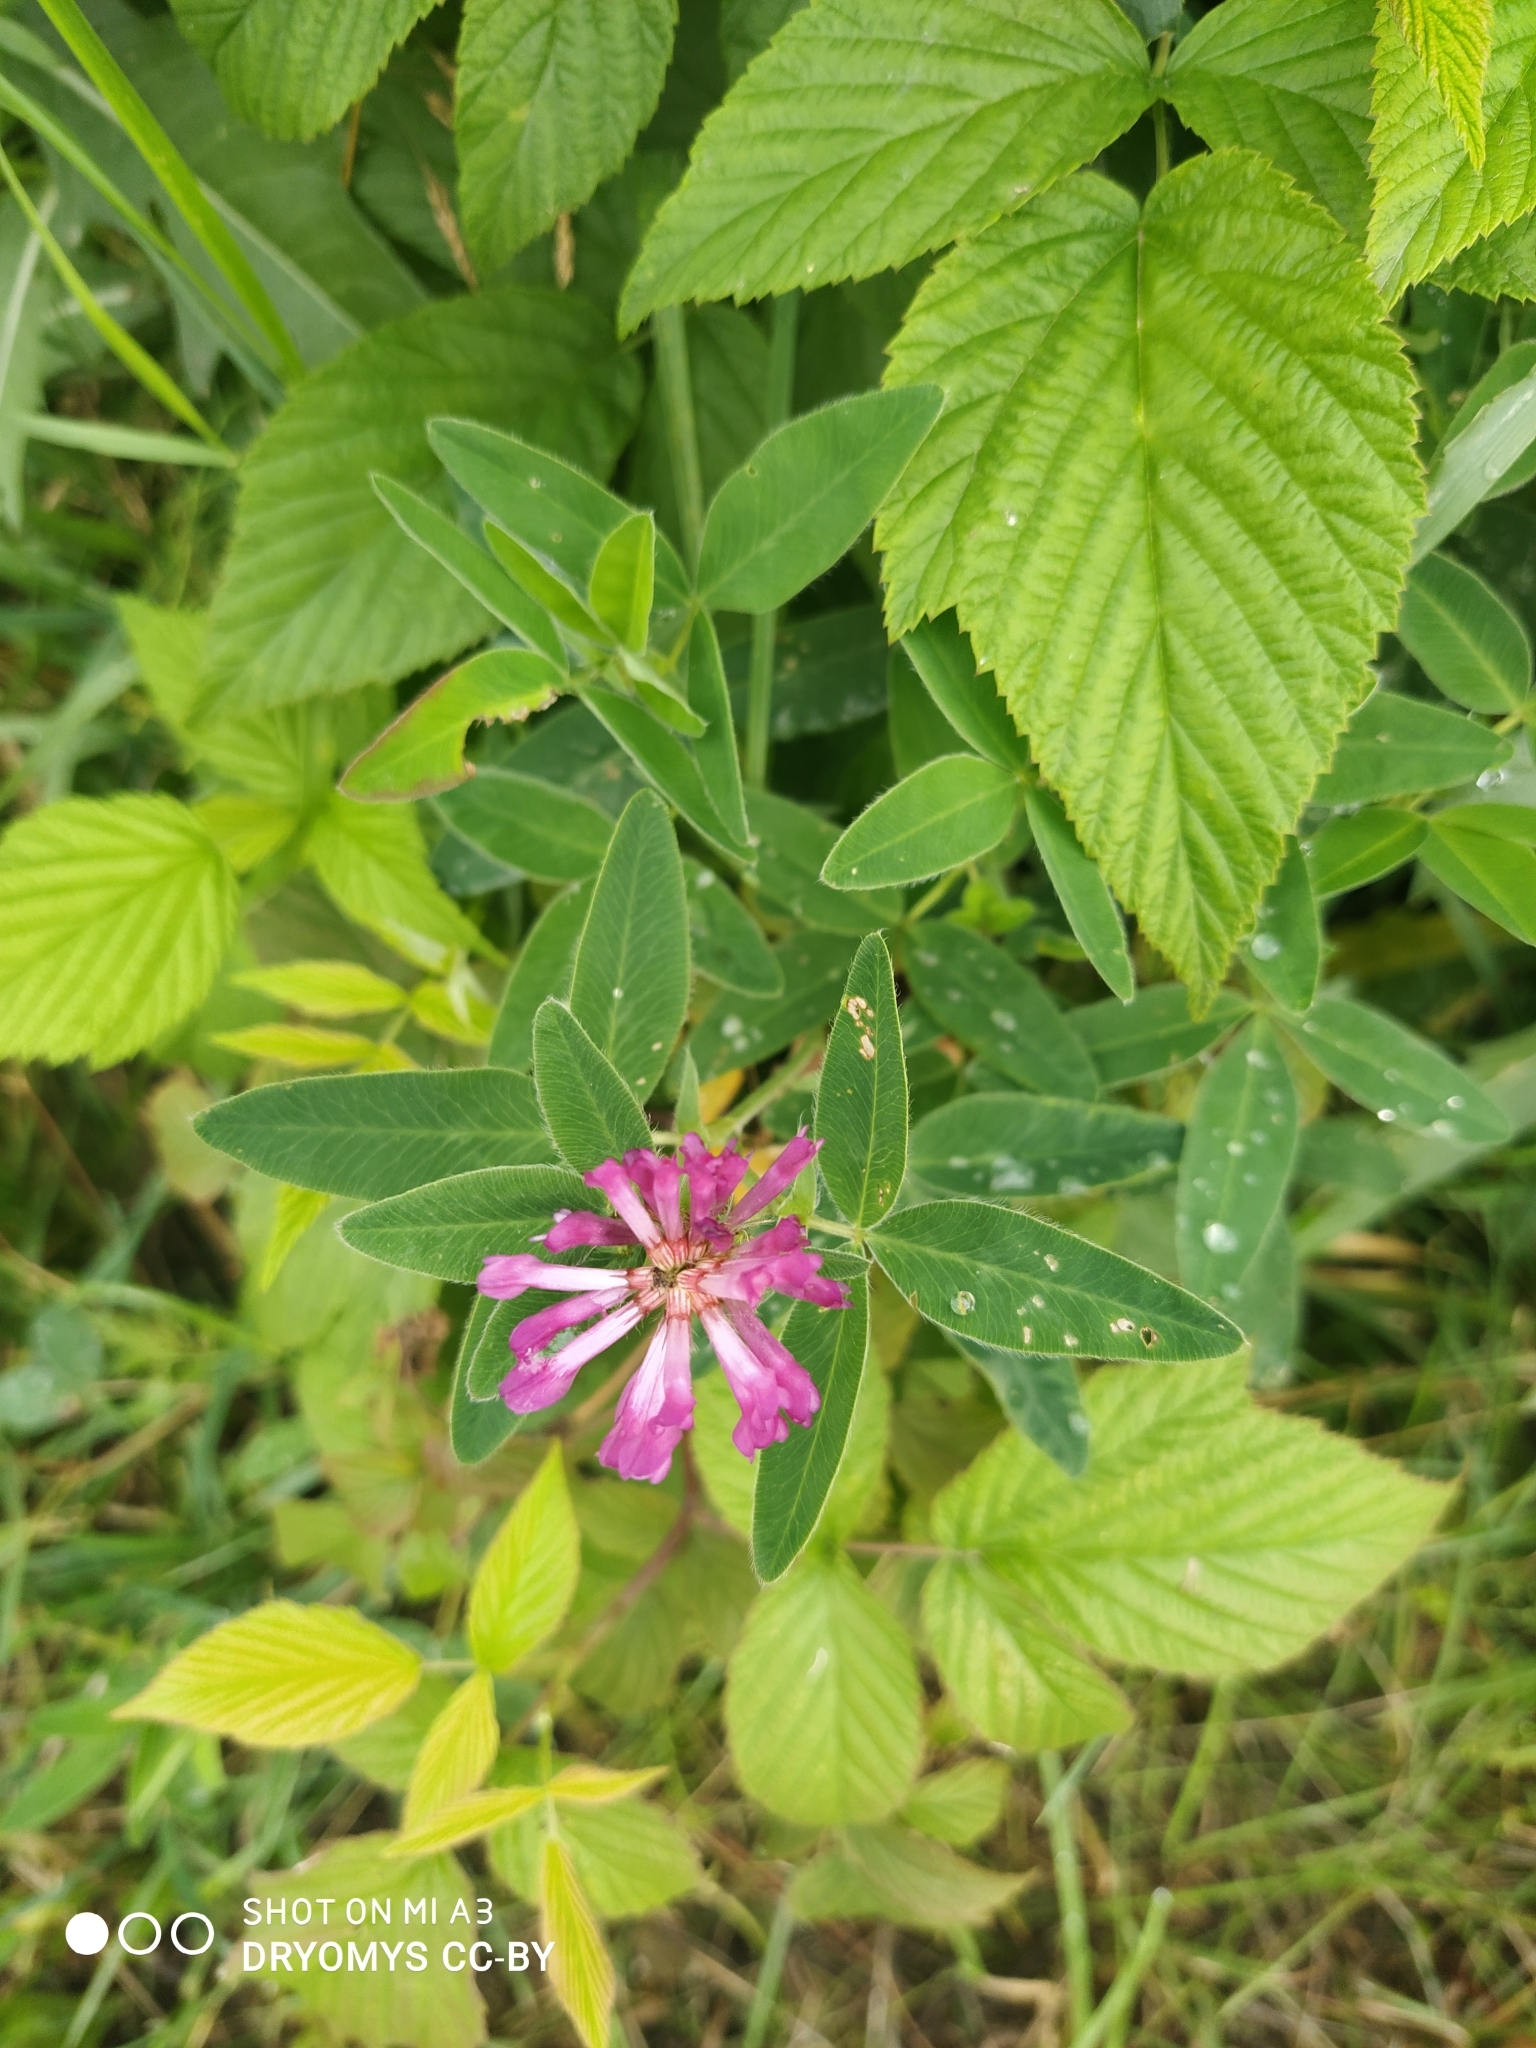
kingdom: Plantae
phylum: Tracheophyta
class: Magnoliopsida
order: Fabales
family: Fabaceae
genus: Trifolium
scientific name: Trifolium medium
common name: Zigzag clover
